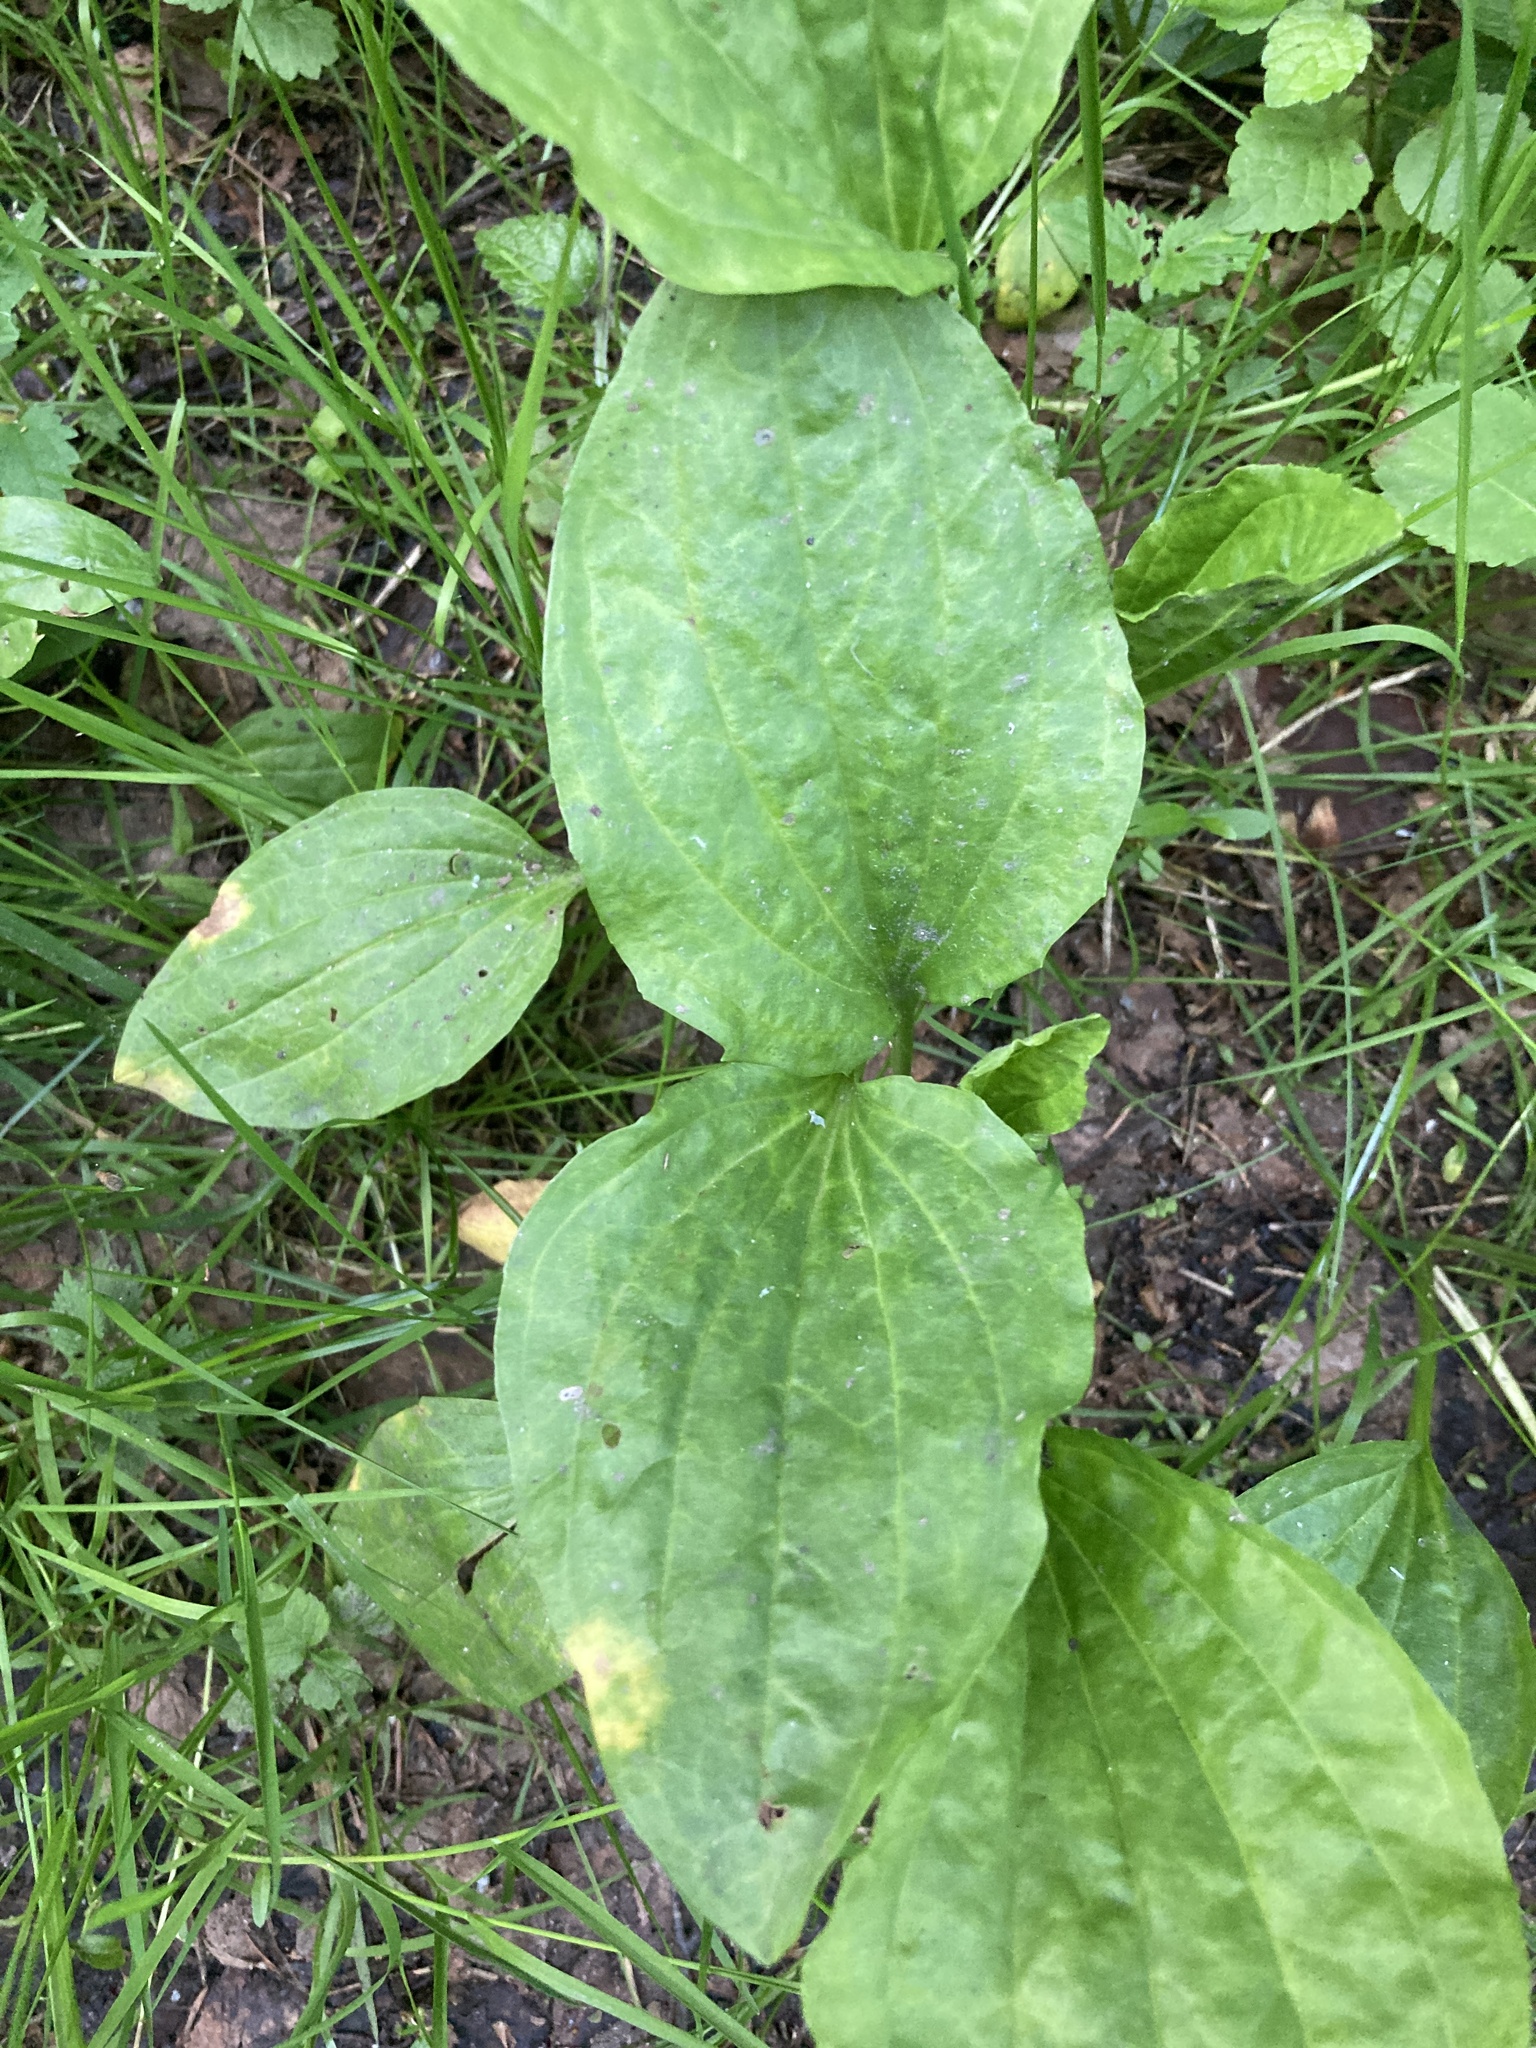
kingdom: Plantae
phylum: Tracheophyta
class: Magnoliopsida
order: Lamiales
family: Plantaginaceae
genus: Plantago
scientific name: Plantago major
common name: Common plantain
